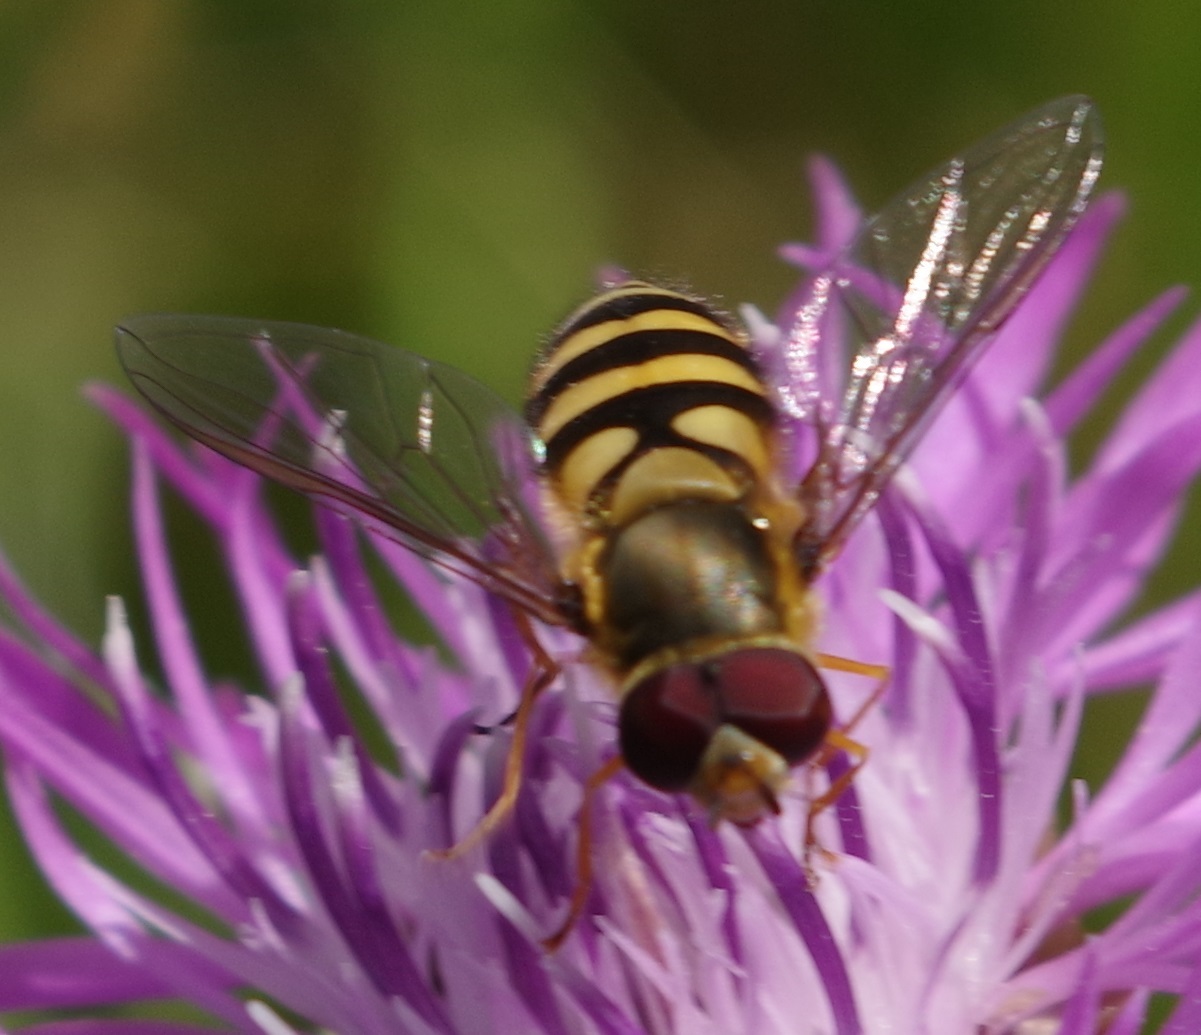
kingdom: Animalia
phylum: Arthropoda
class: Insecta
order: Diptera
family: Syrphidae
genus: Syrphus
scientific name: Syrphus
